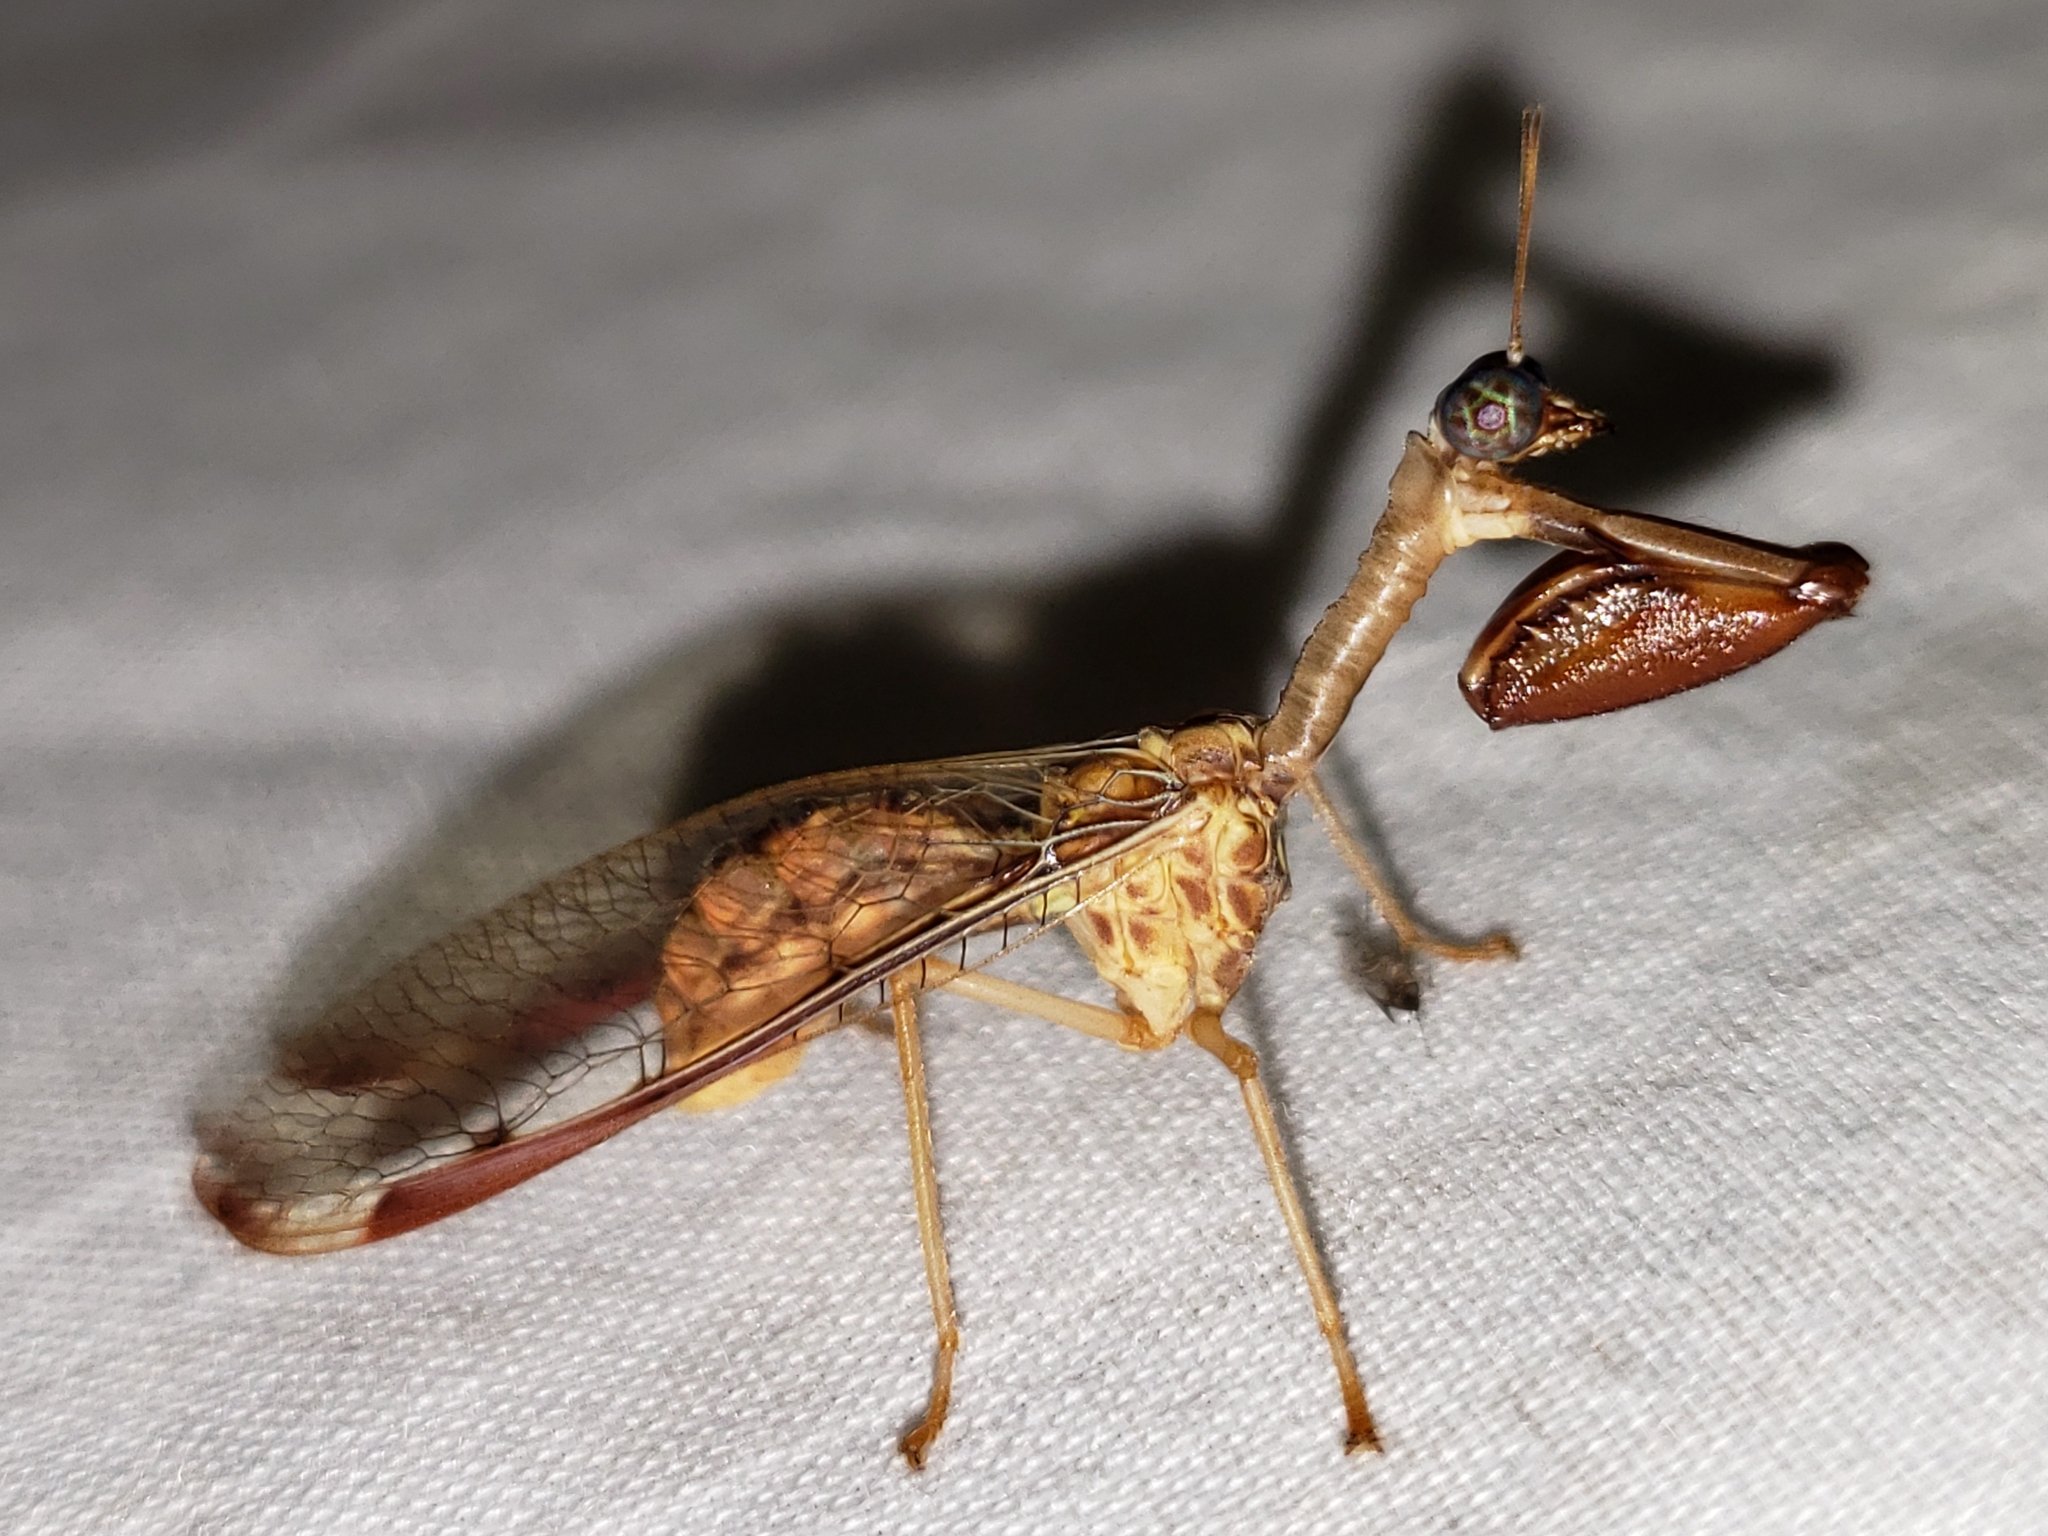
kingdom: Animalia
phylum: Arthropoda
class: Insecta
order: Neuroptera
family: Mantispidae
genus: Dicromantispa
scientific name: Dicromantispa interrupta
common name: Four-spotted mantidfly
